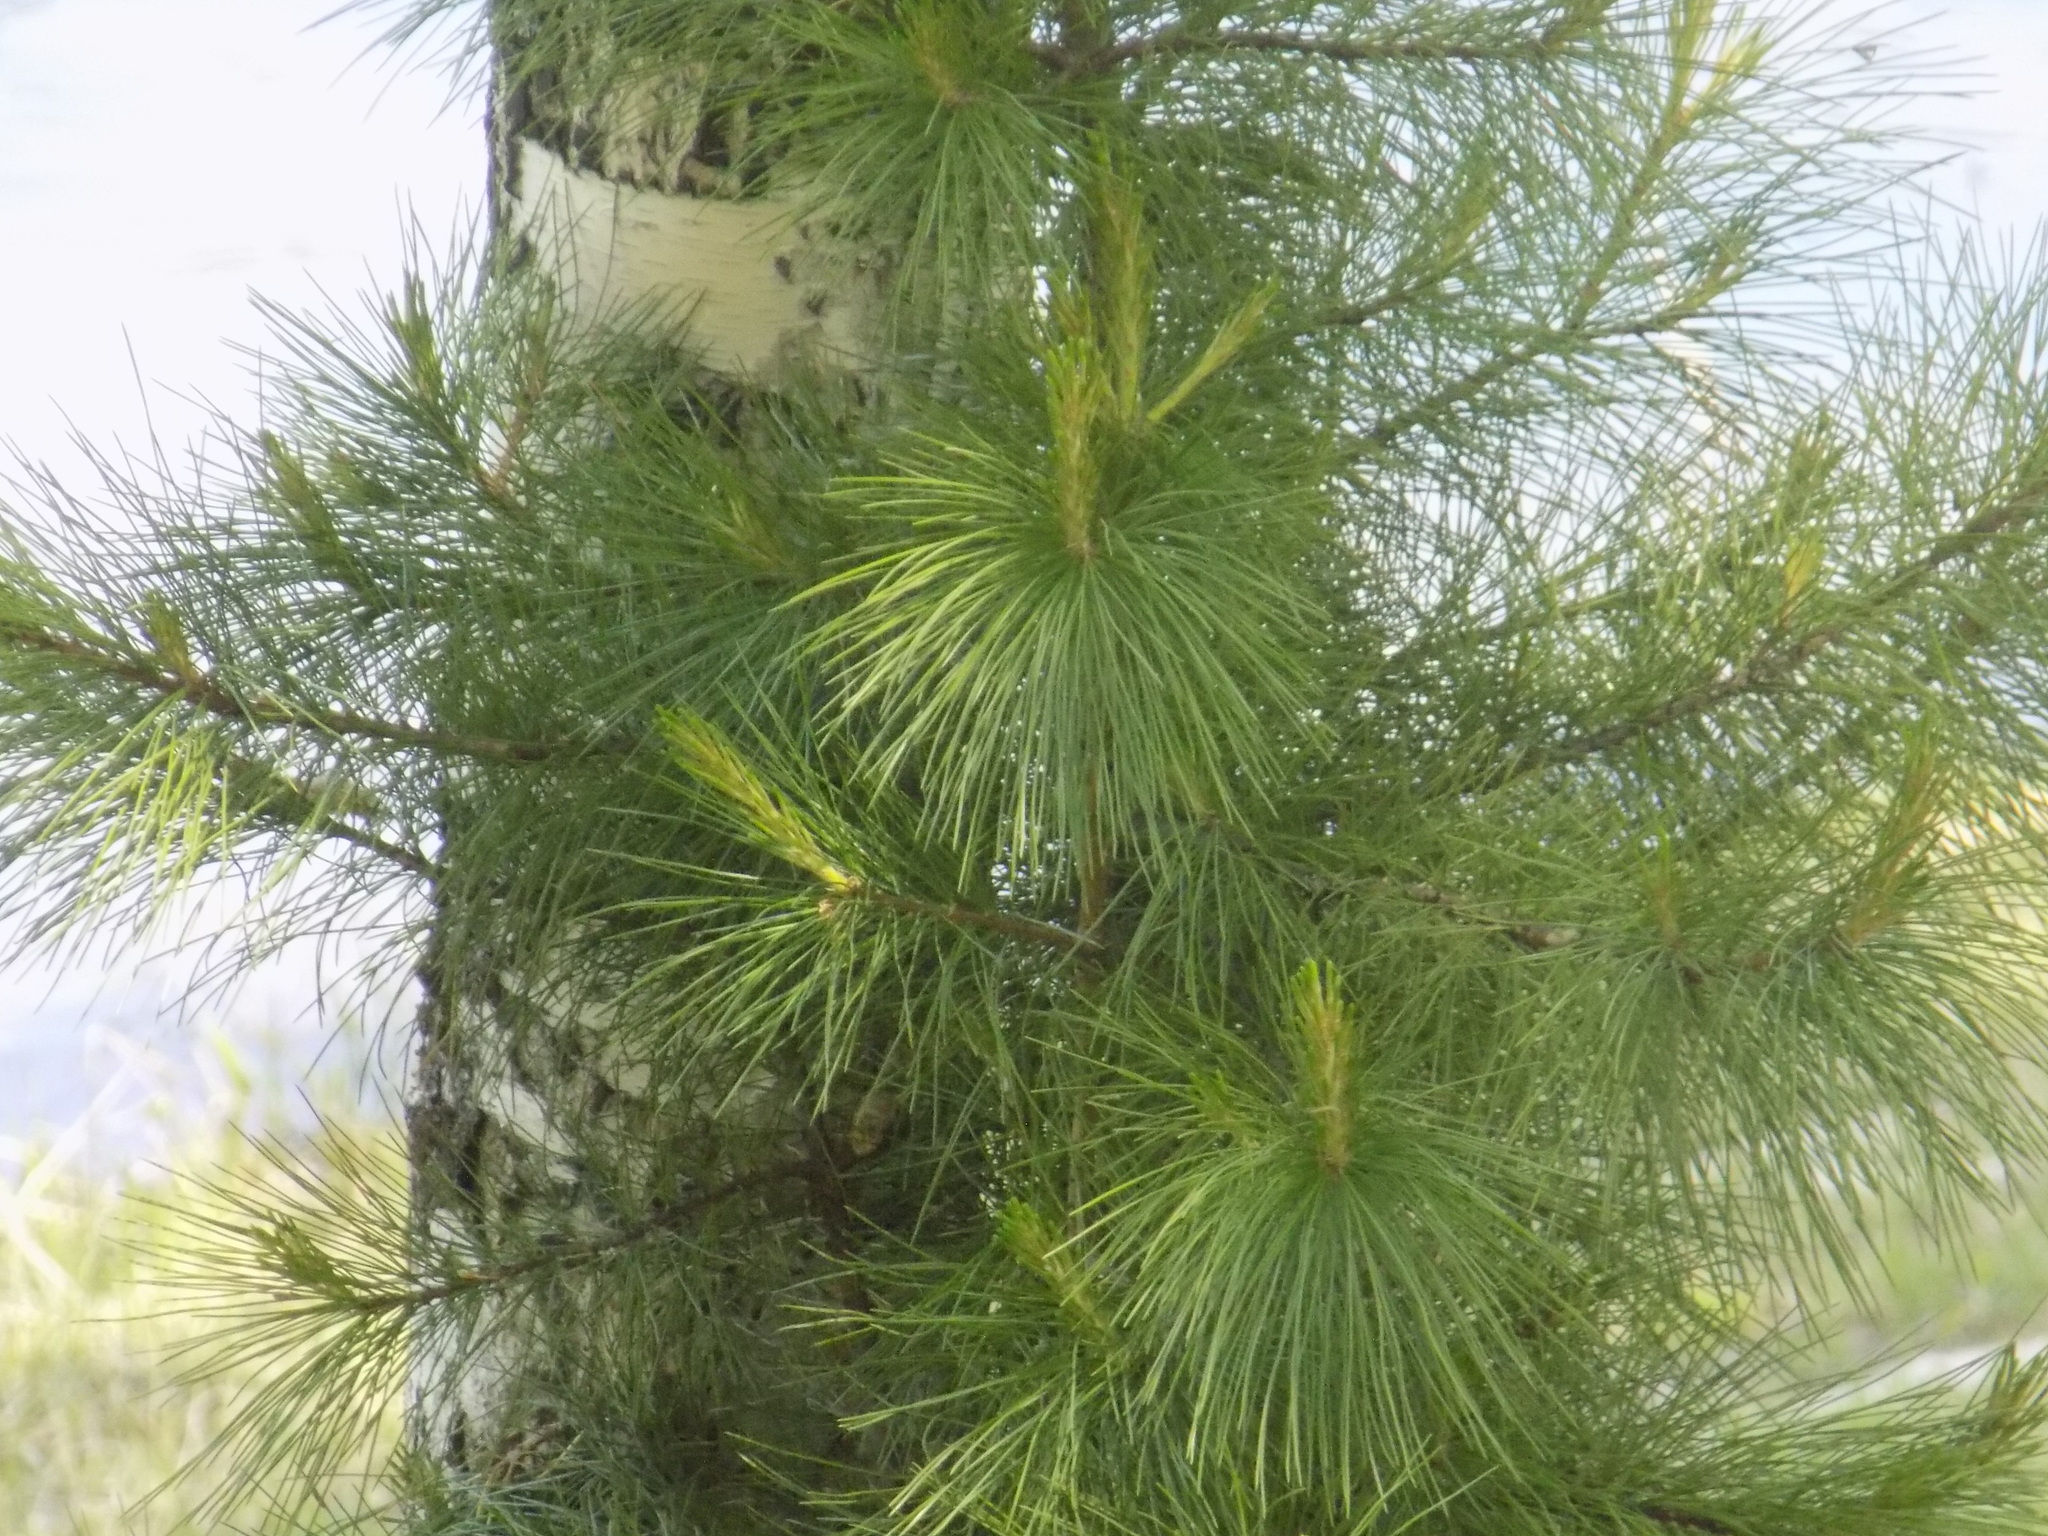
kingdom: Plantae
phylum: Tracheophyta
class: Pinopsida
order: Pinales
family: Pinaceae
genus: Pinus
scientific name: Pinus sibirica
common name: Siberian pine
